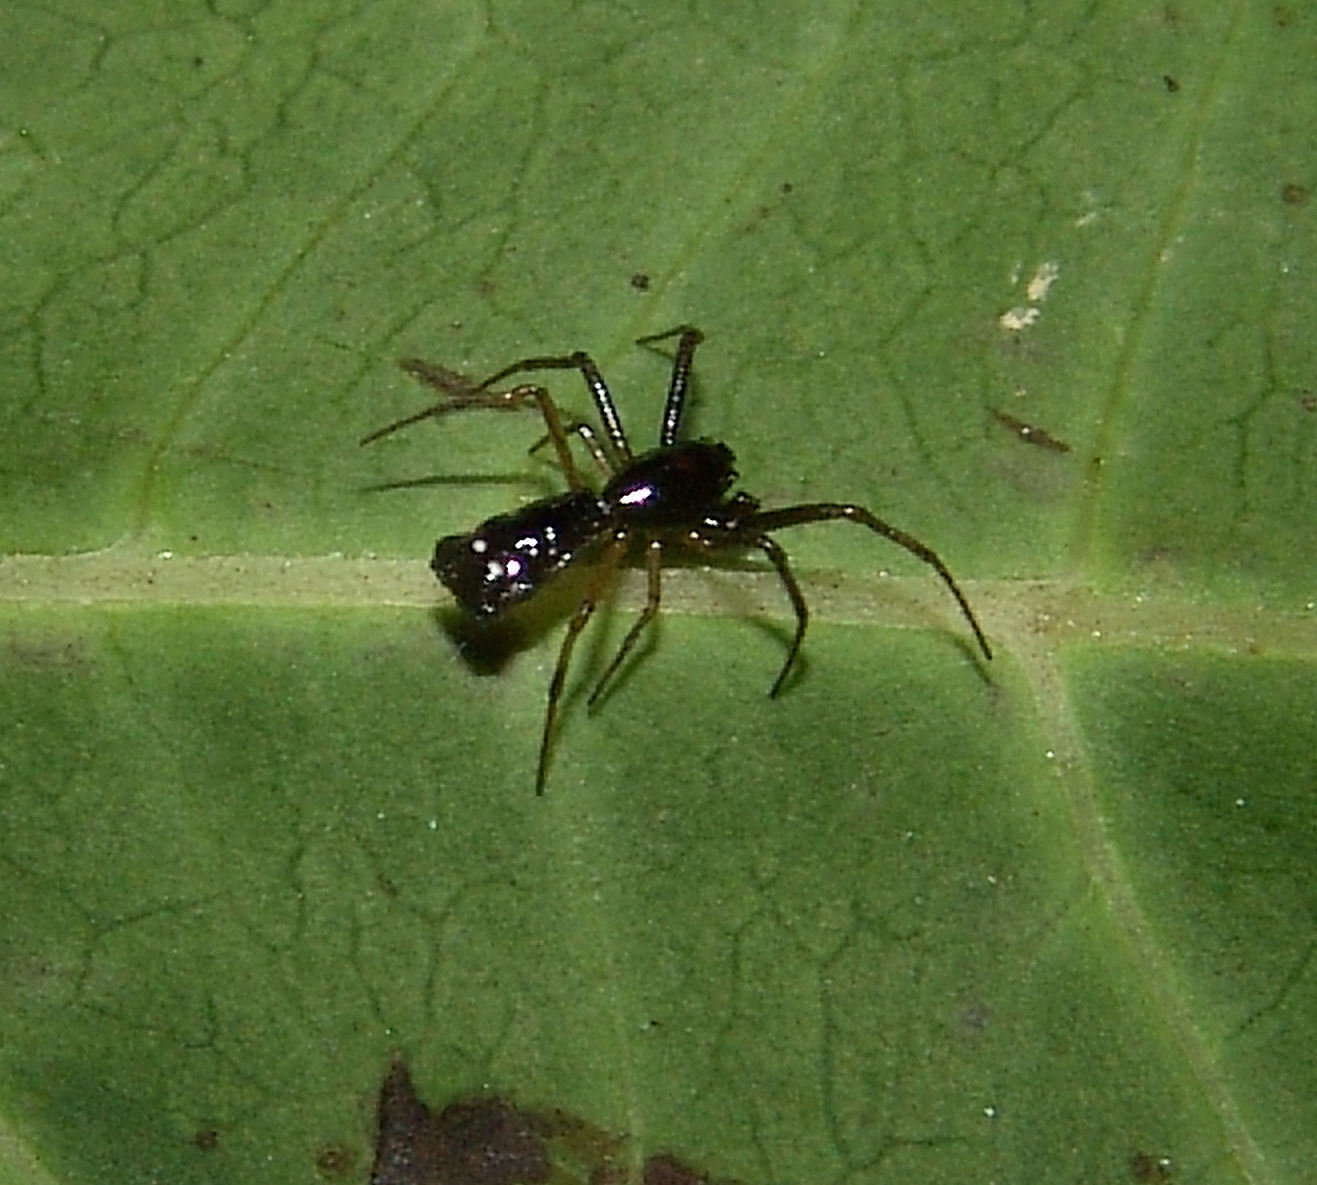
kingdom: Animalia
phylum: Arthropoda
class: Arachnida
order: Araneae
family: Araneidae
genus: Micrathena
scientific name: Micrathena sagittata
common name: Orb weavers
